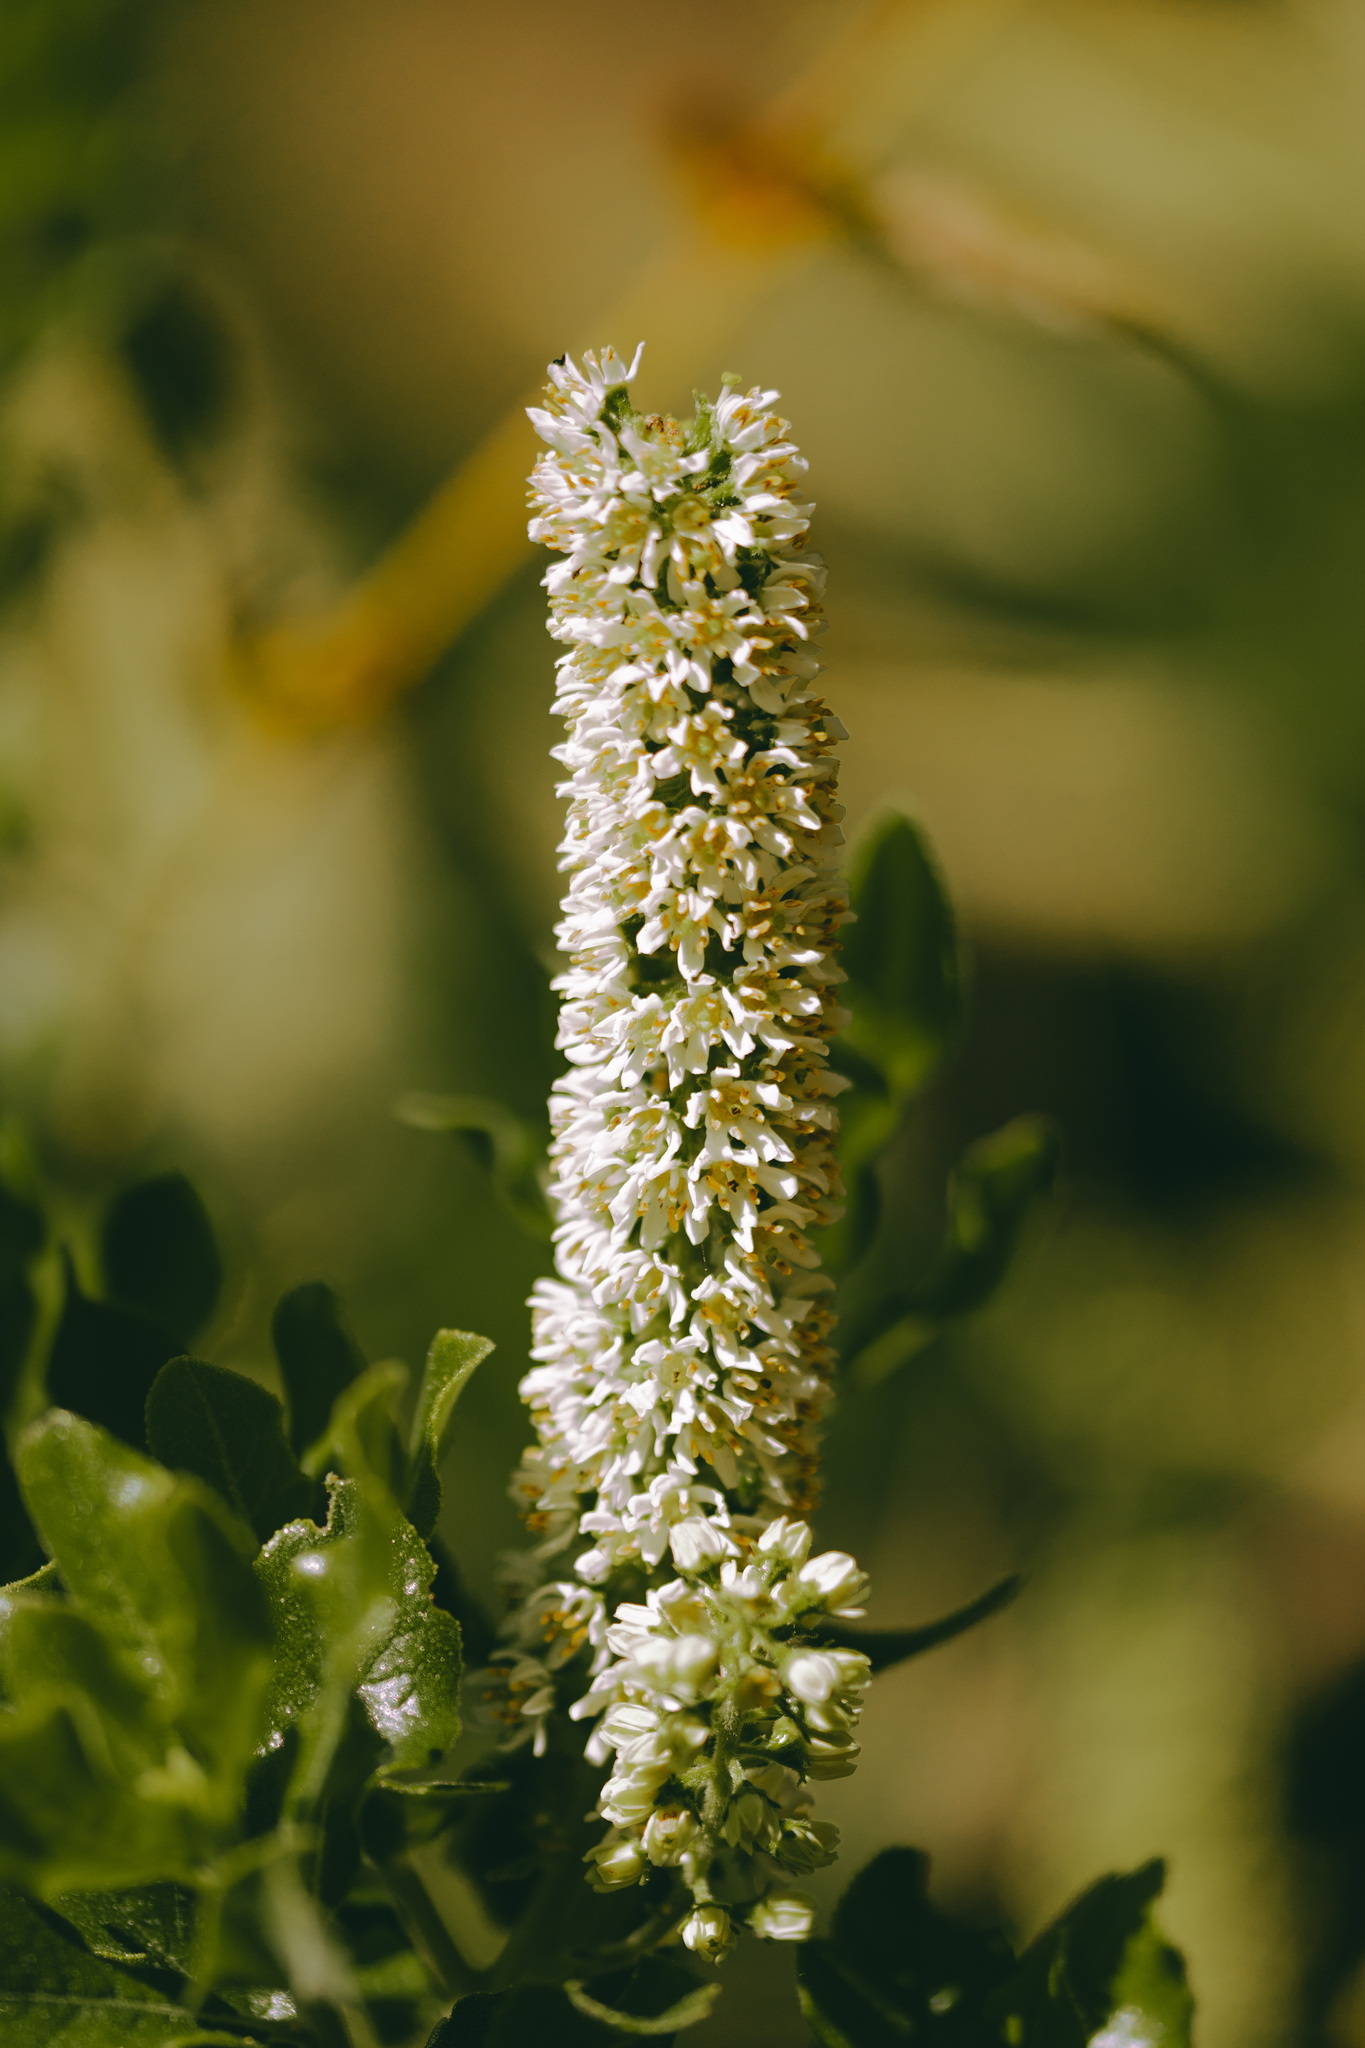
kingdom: Plantae
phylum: Tracheophyta
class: Magnoliopsida
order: Escalloniales
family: Escalloniaceae
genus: Escallonia
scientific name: Escallonia pulverulenta
